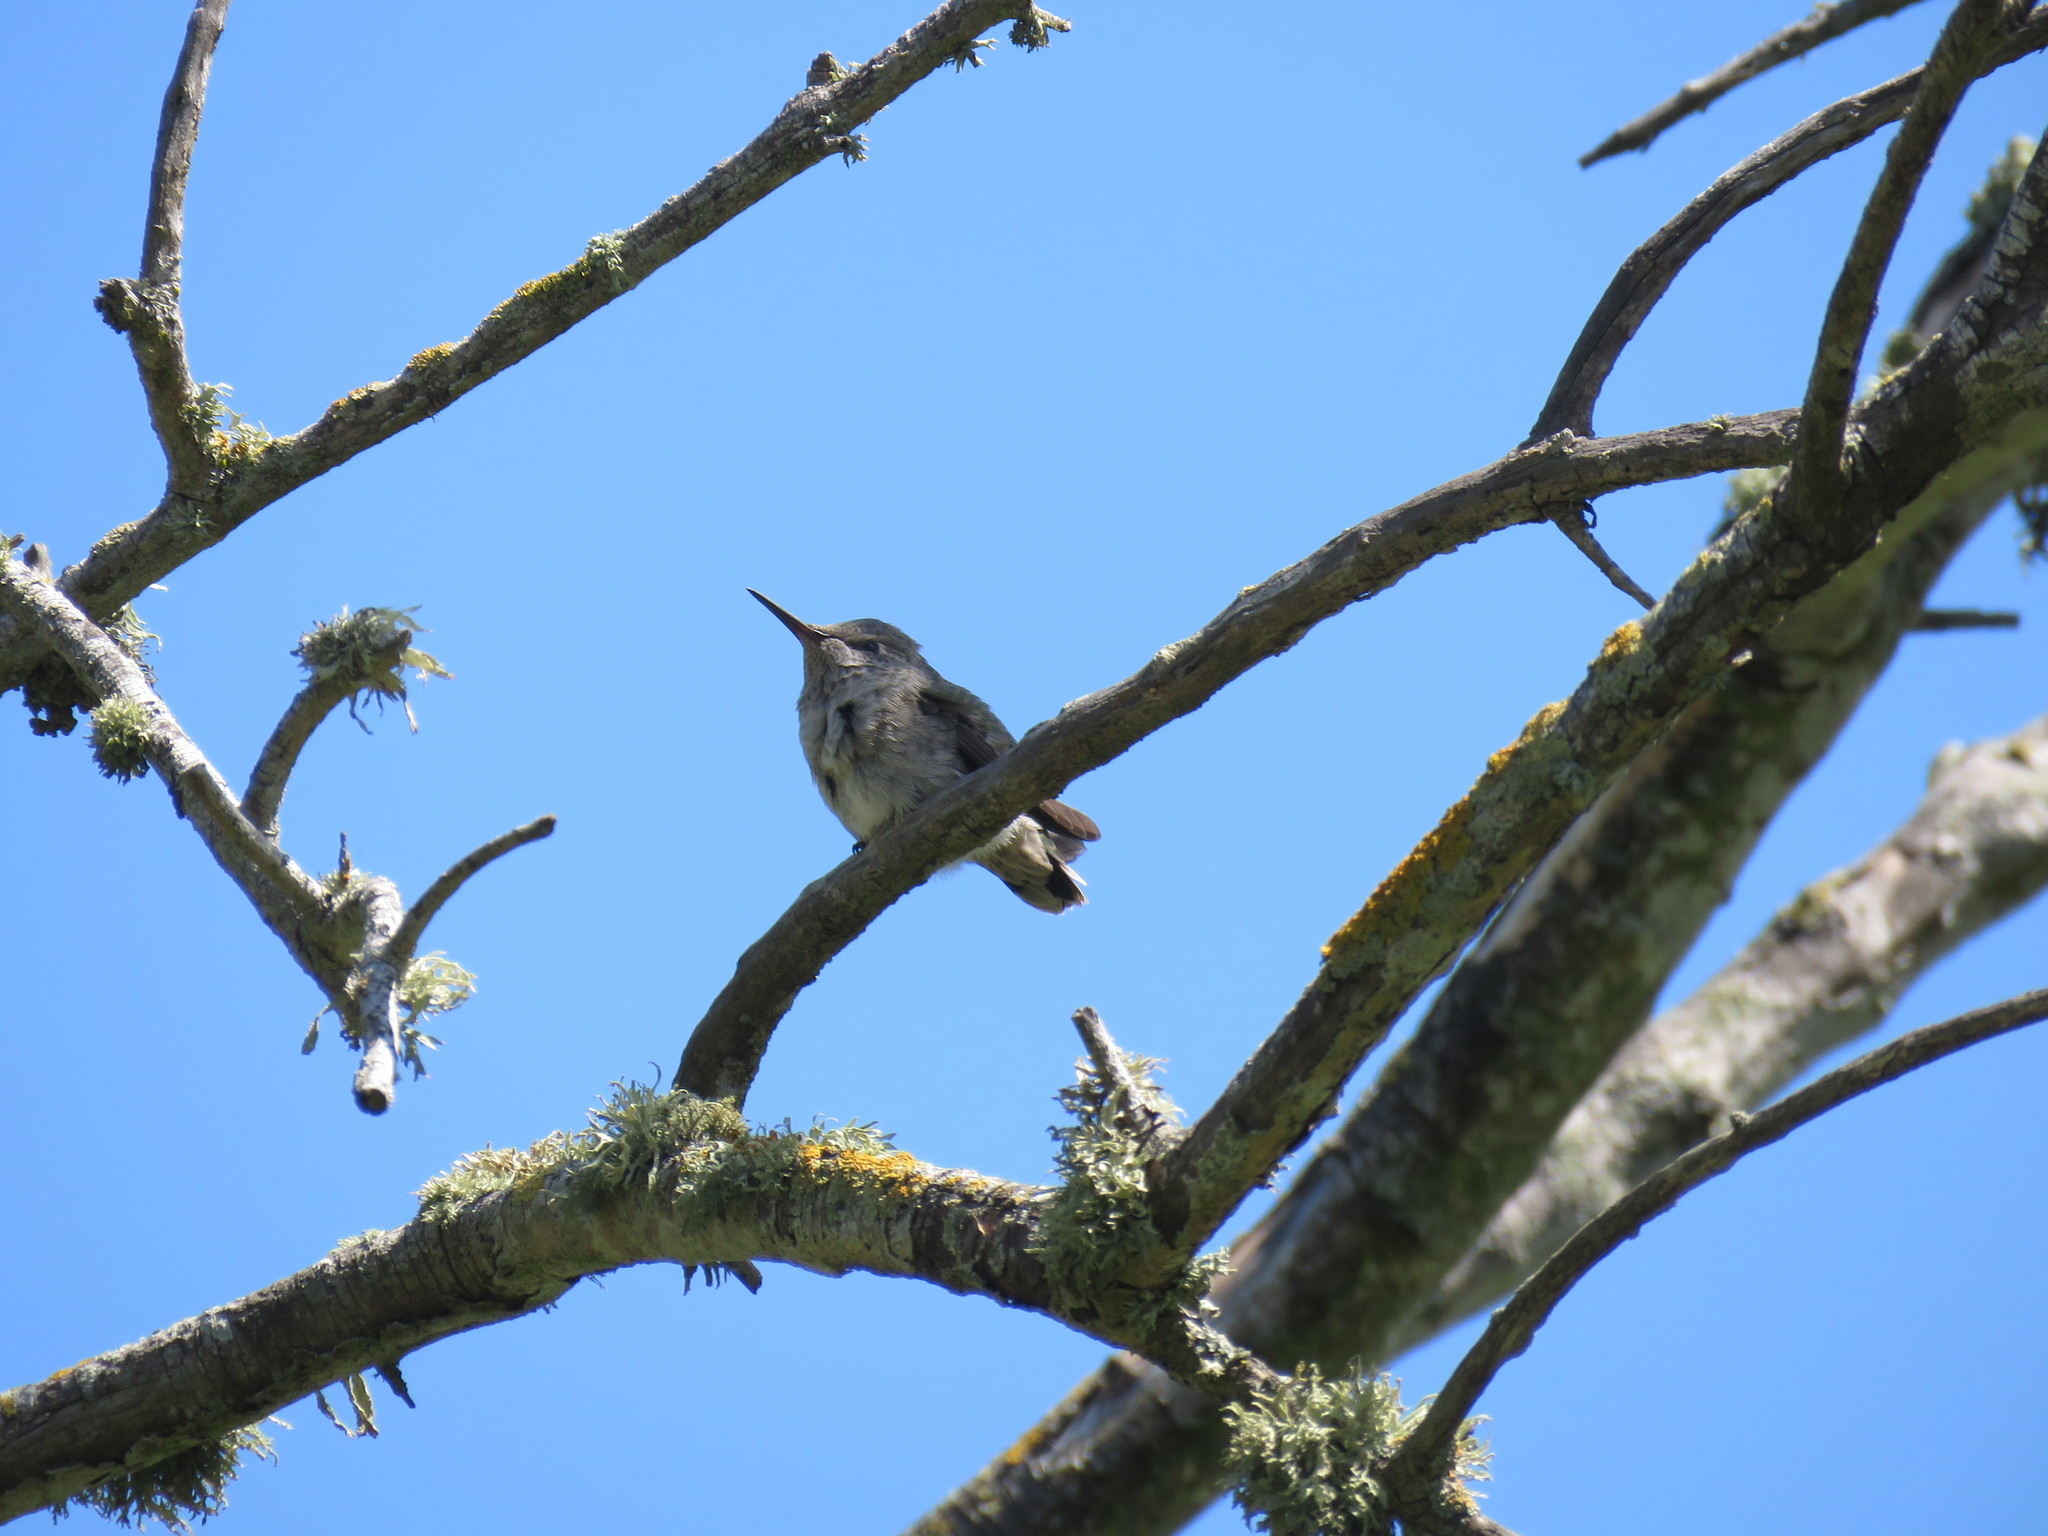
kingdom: Animalia
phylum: Chordata
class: Aves
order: Apodiformes
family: Trochilidae
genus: Calypte
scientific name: Calypte anna
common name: Anna's hummingbird
